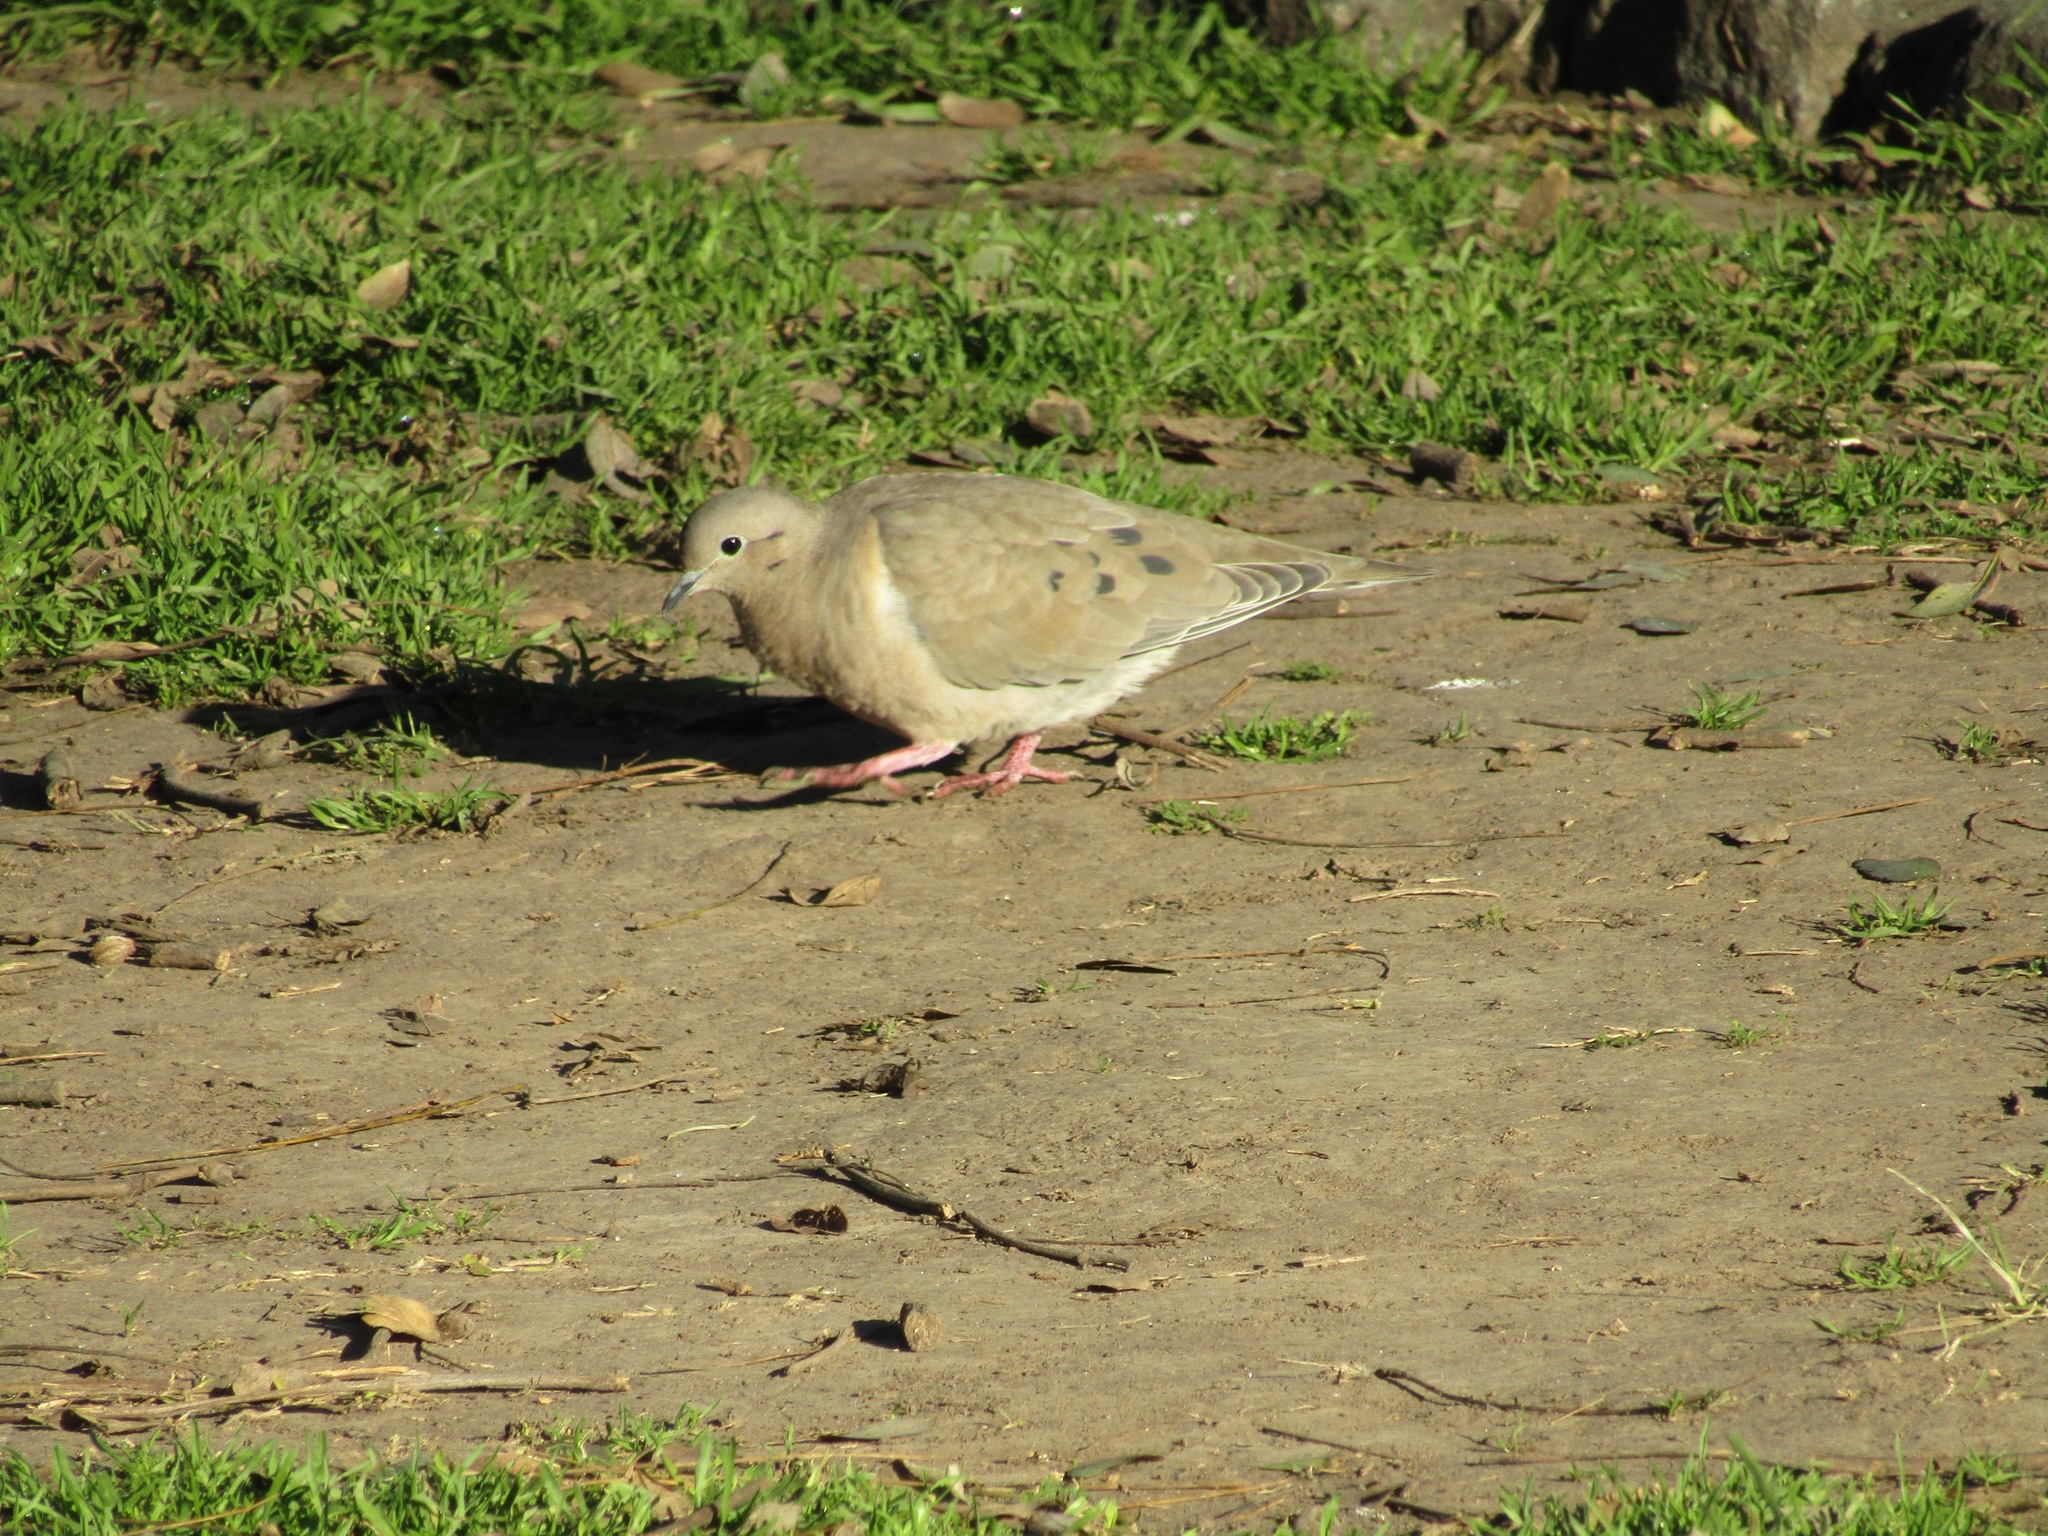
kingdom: Animalia
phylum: Chordata
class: Aves
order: Columbiformes
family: Columbidae
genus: Zenaida
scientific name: Zenaida auriculata
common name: Eared dove
